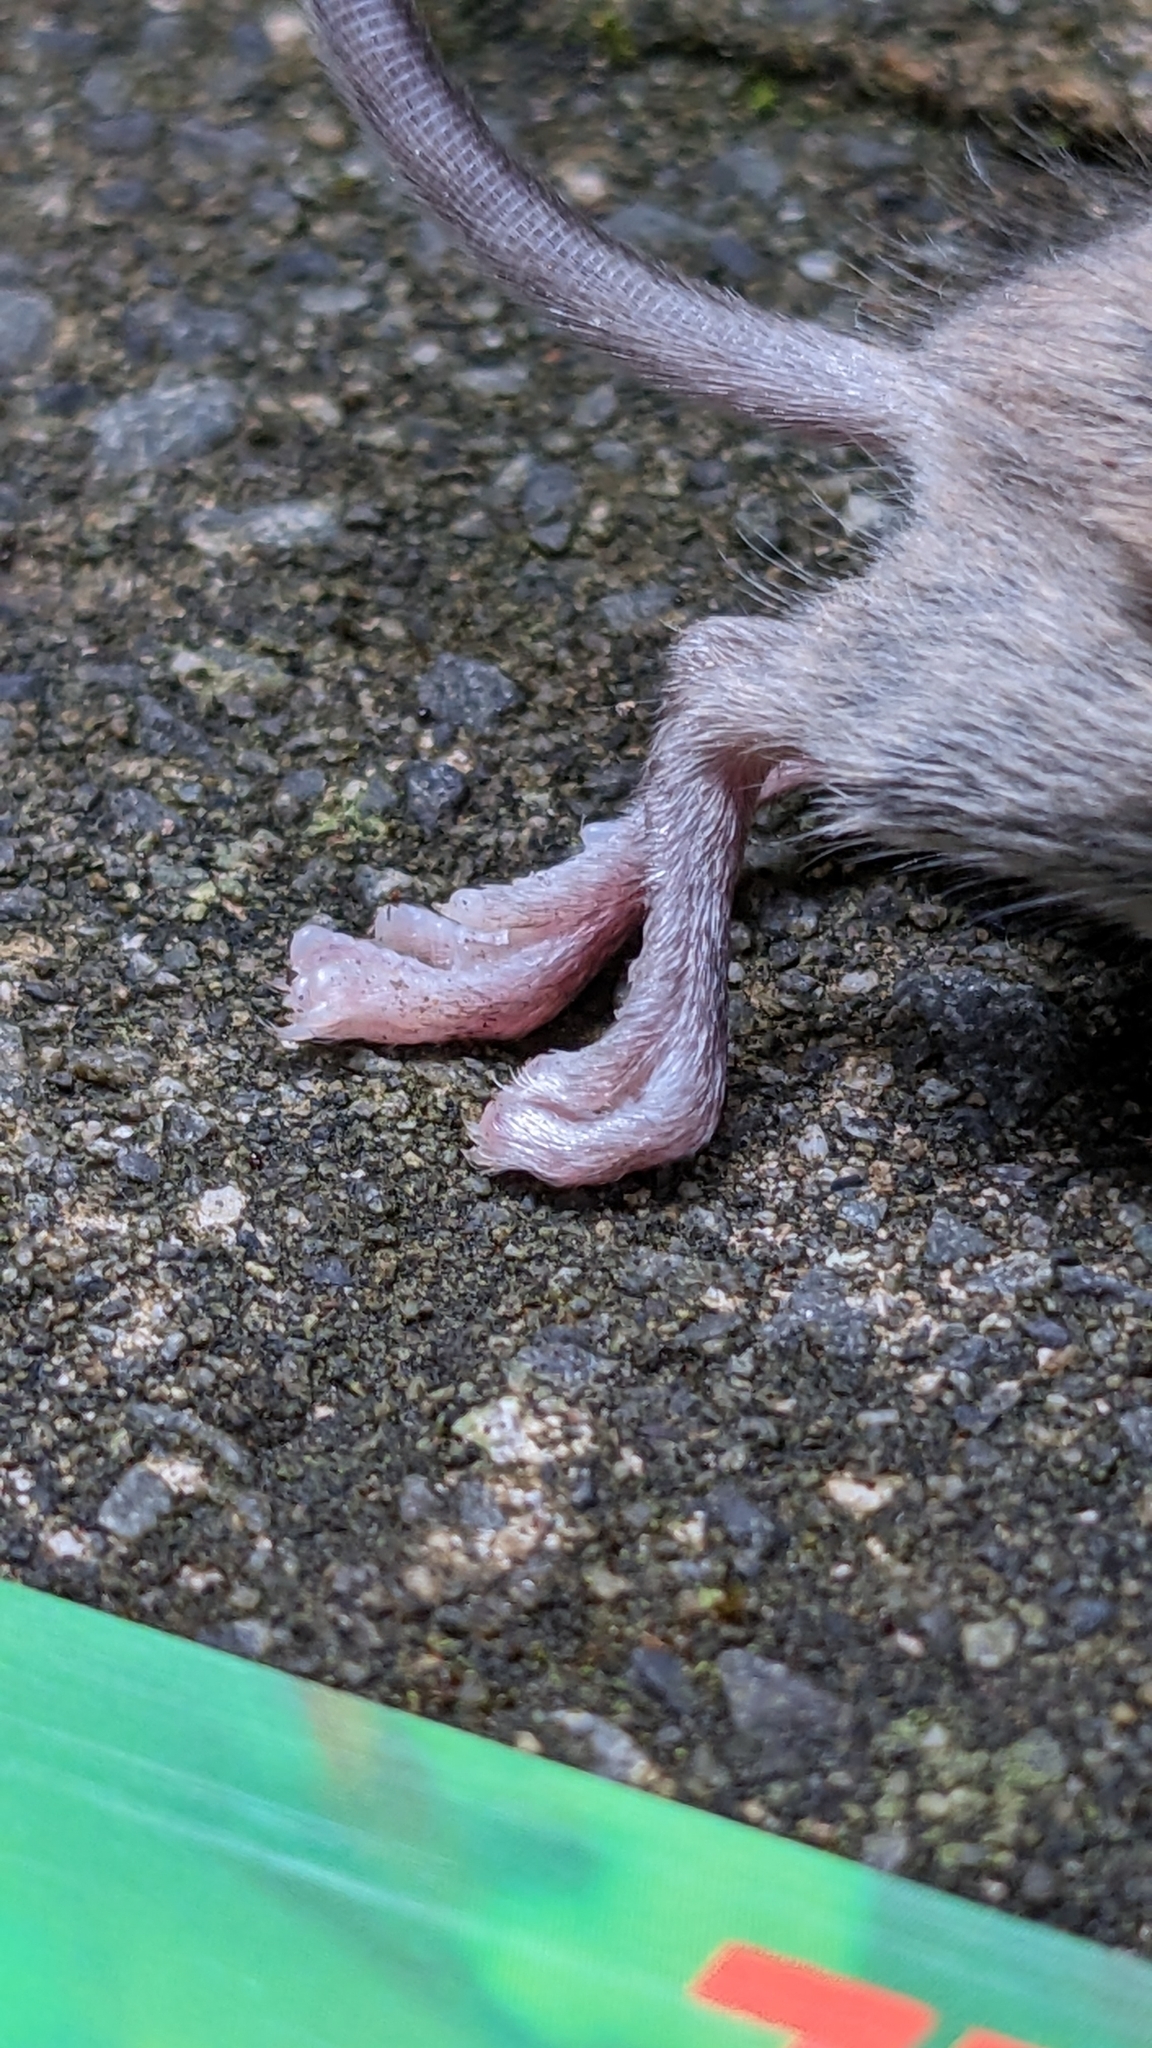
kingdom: Animalia
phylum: Chordata
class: Mammalia
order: Rodentia
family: Muridae
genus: Mus
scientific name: Mus musculus
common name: House mouse
